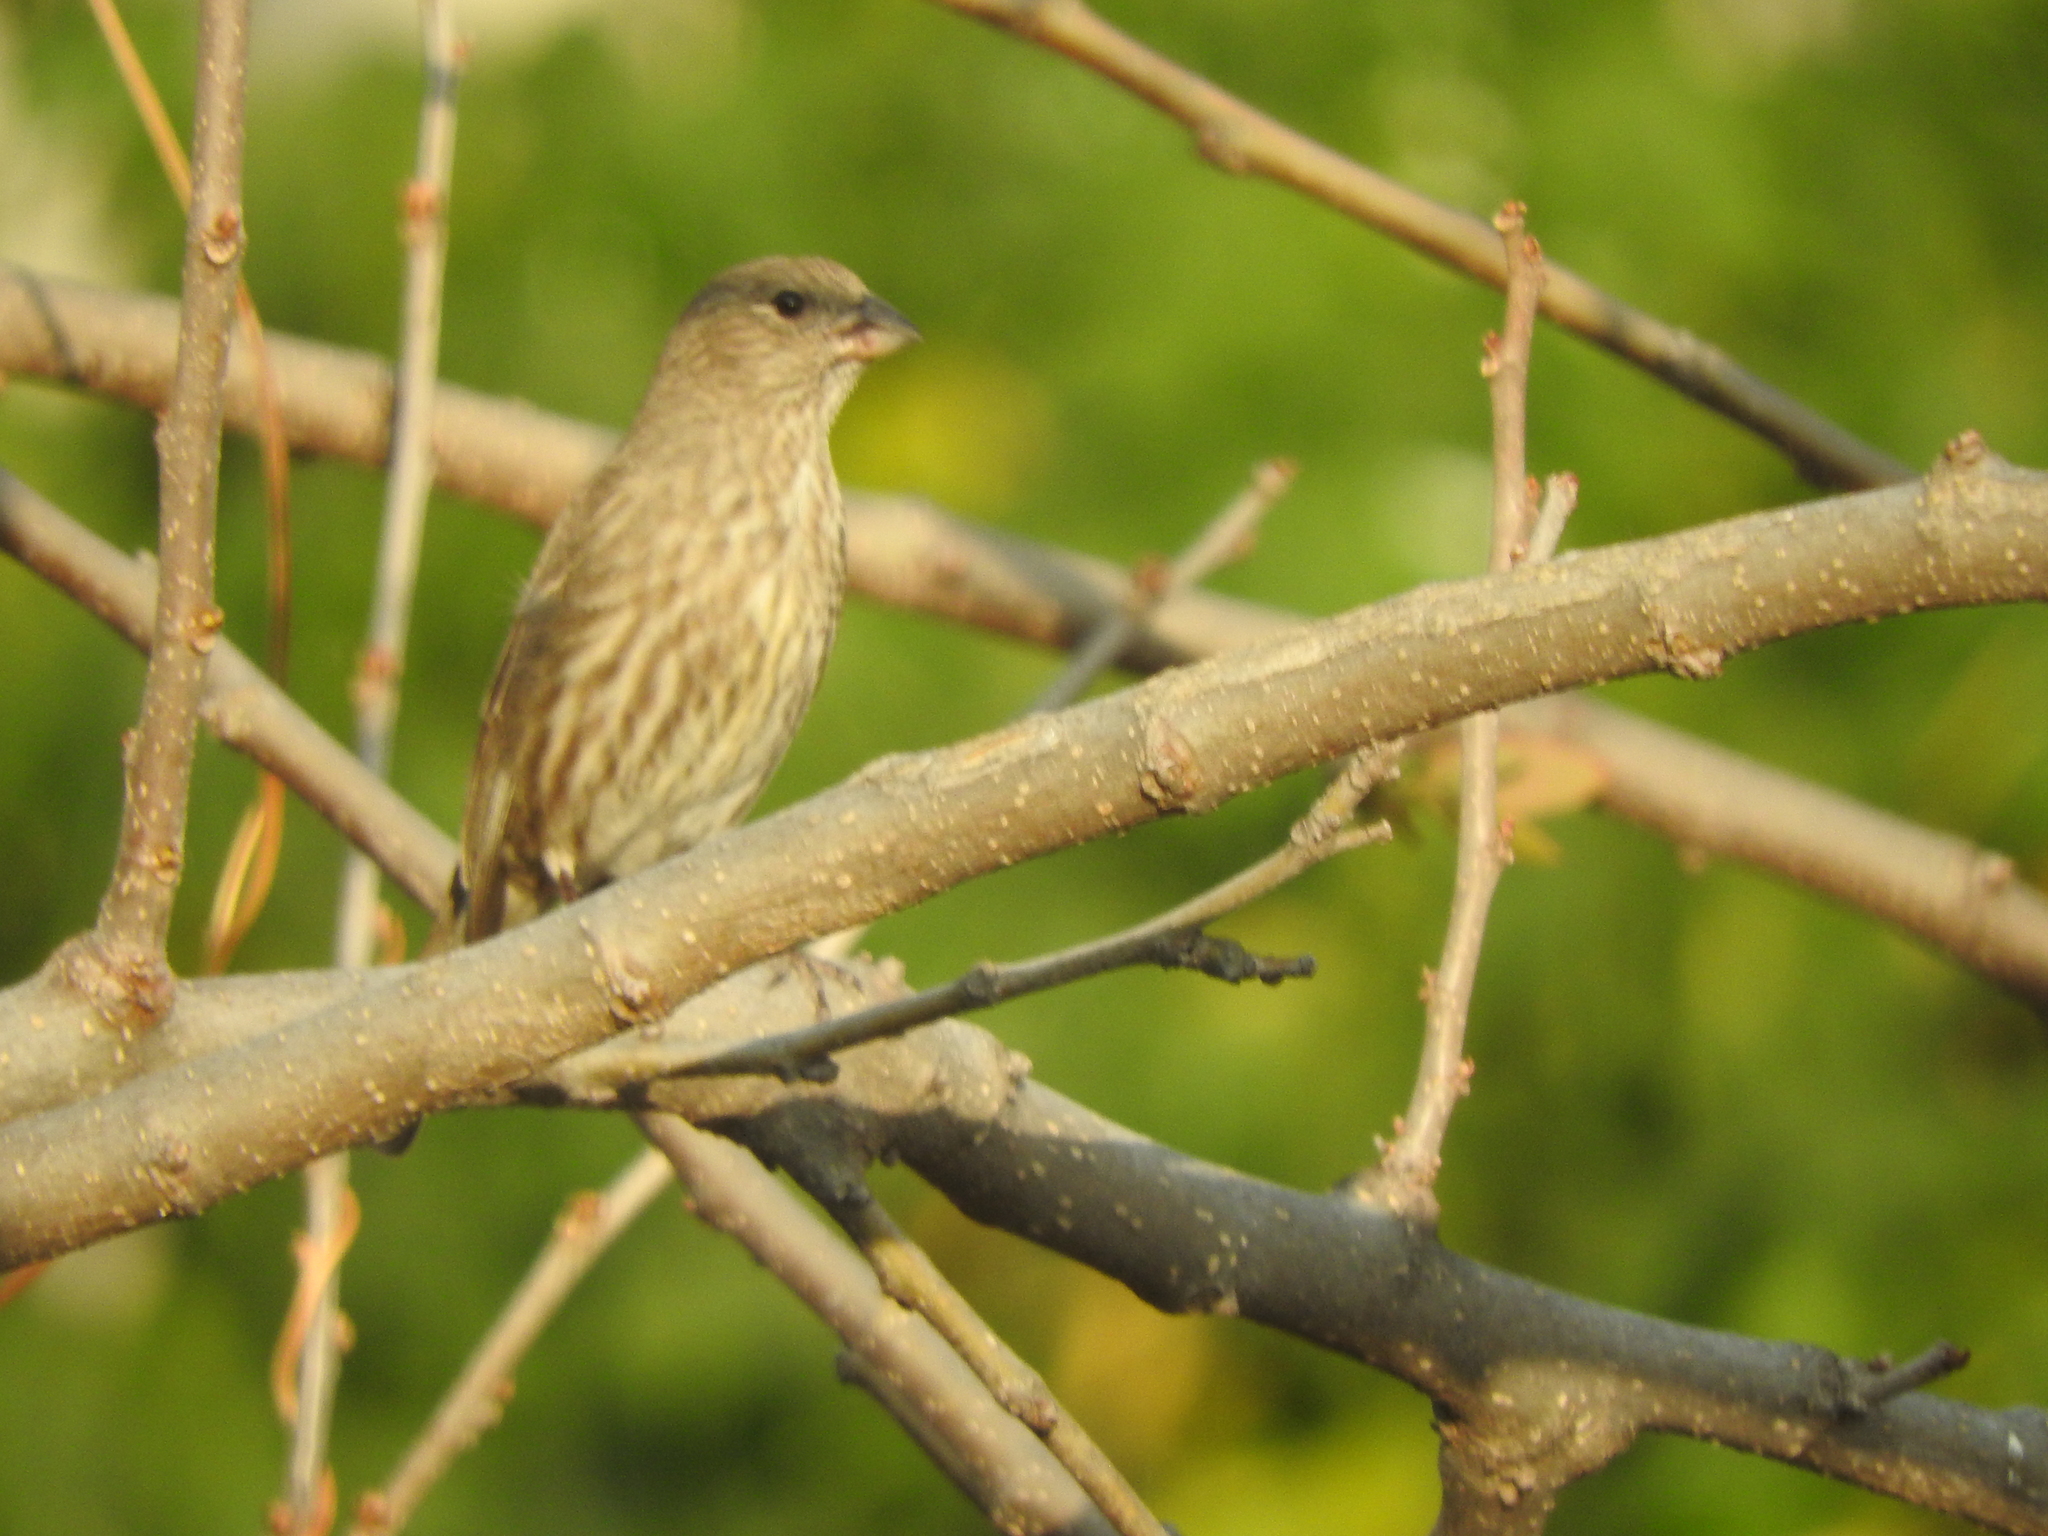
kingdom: Animalia
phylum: Chordata
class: Aves
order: Passeriformes
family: Fringillidae
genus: Haemorhous
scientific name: Haemorhous mexicanus
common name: House finch
